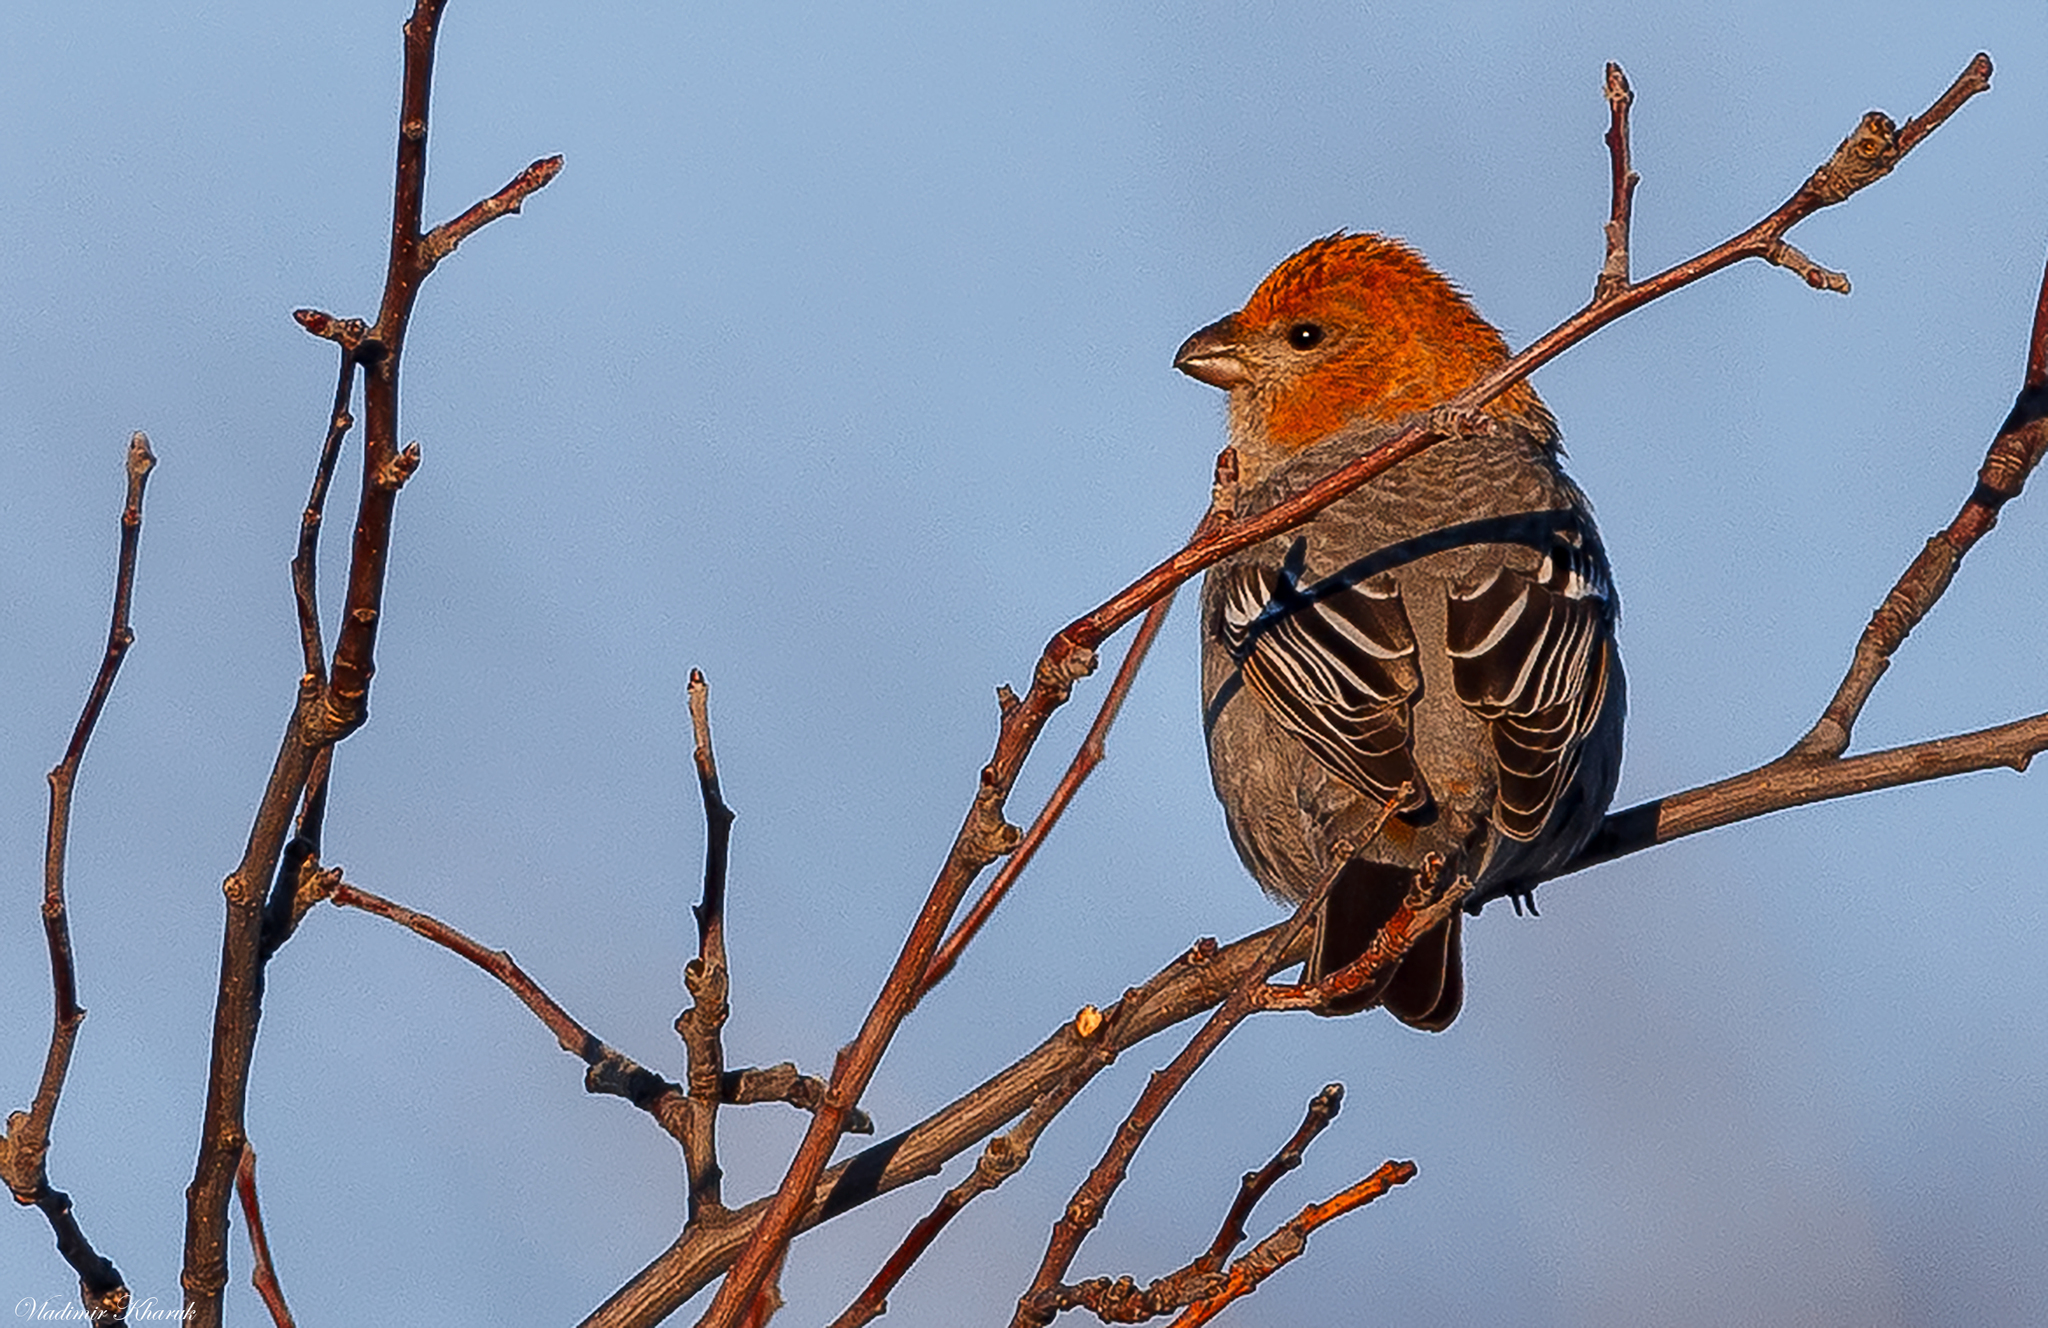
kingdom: Animalia
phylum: Chordata
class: Aves
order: Passeriformes
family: Fringillidae
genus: Pinicola
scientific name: Pinicola enucleator
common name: Pine grosbeak
